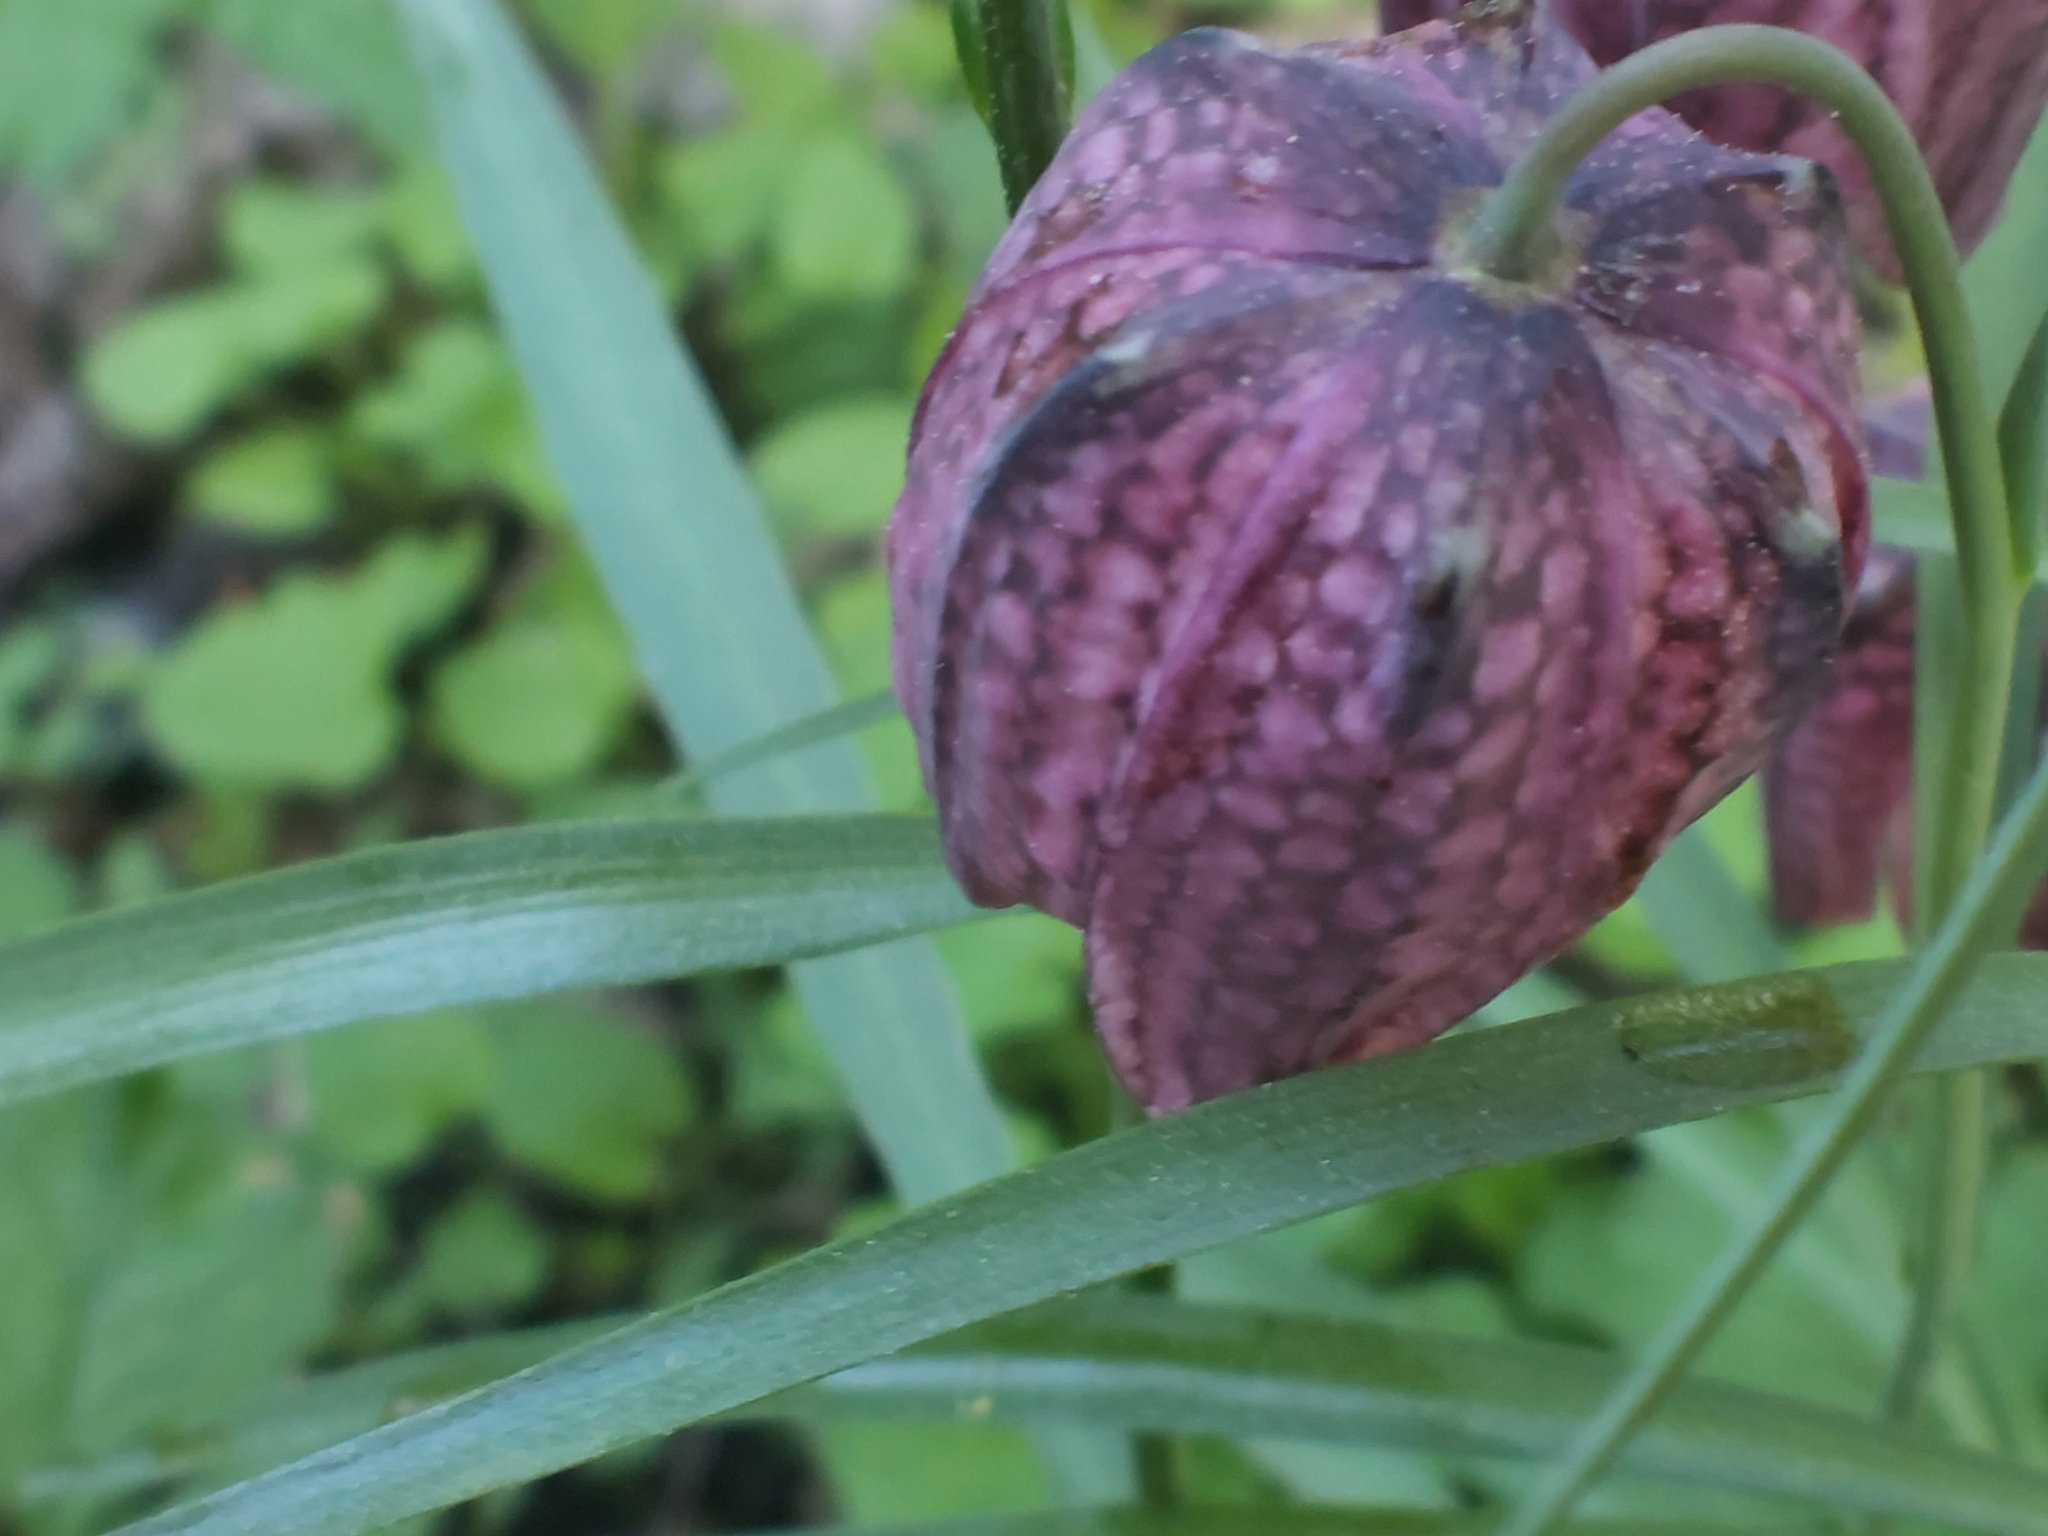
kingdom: Plantae
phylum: Tracheophyta
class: Liliopsida
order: Liliales
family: Liliaceae
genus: Fritillaria
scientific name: Fritillaria meleagris
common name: Fritillary
